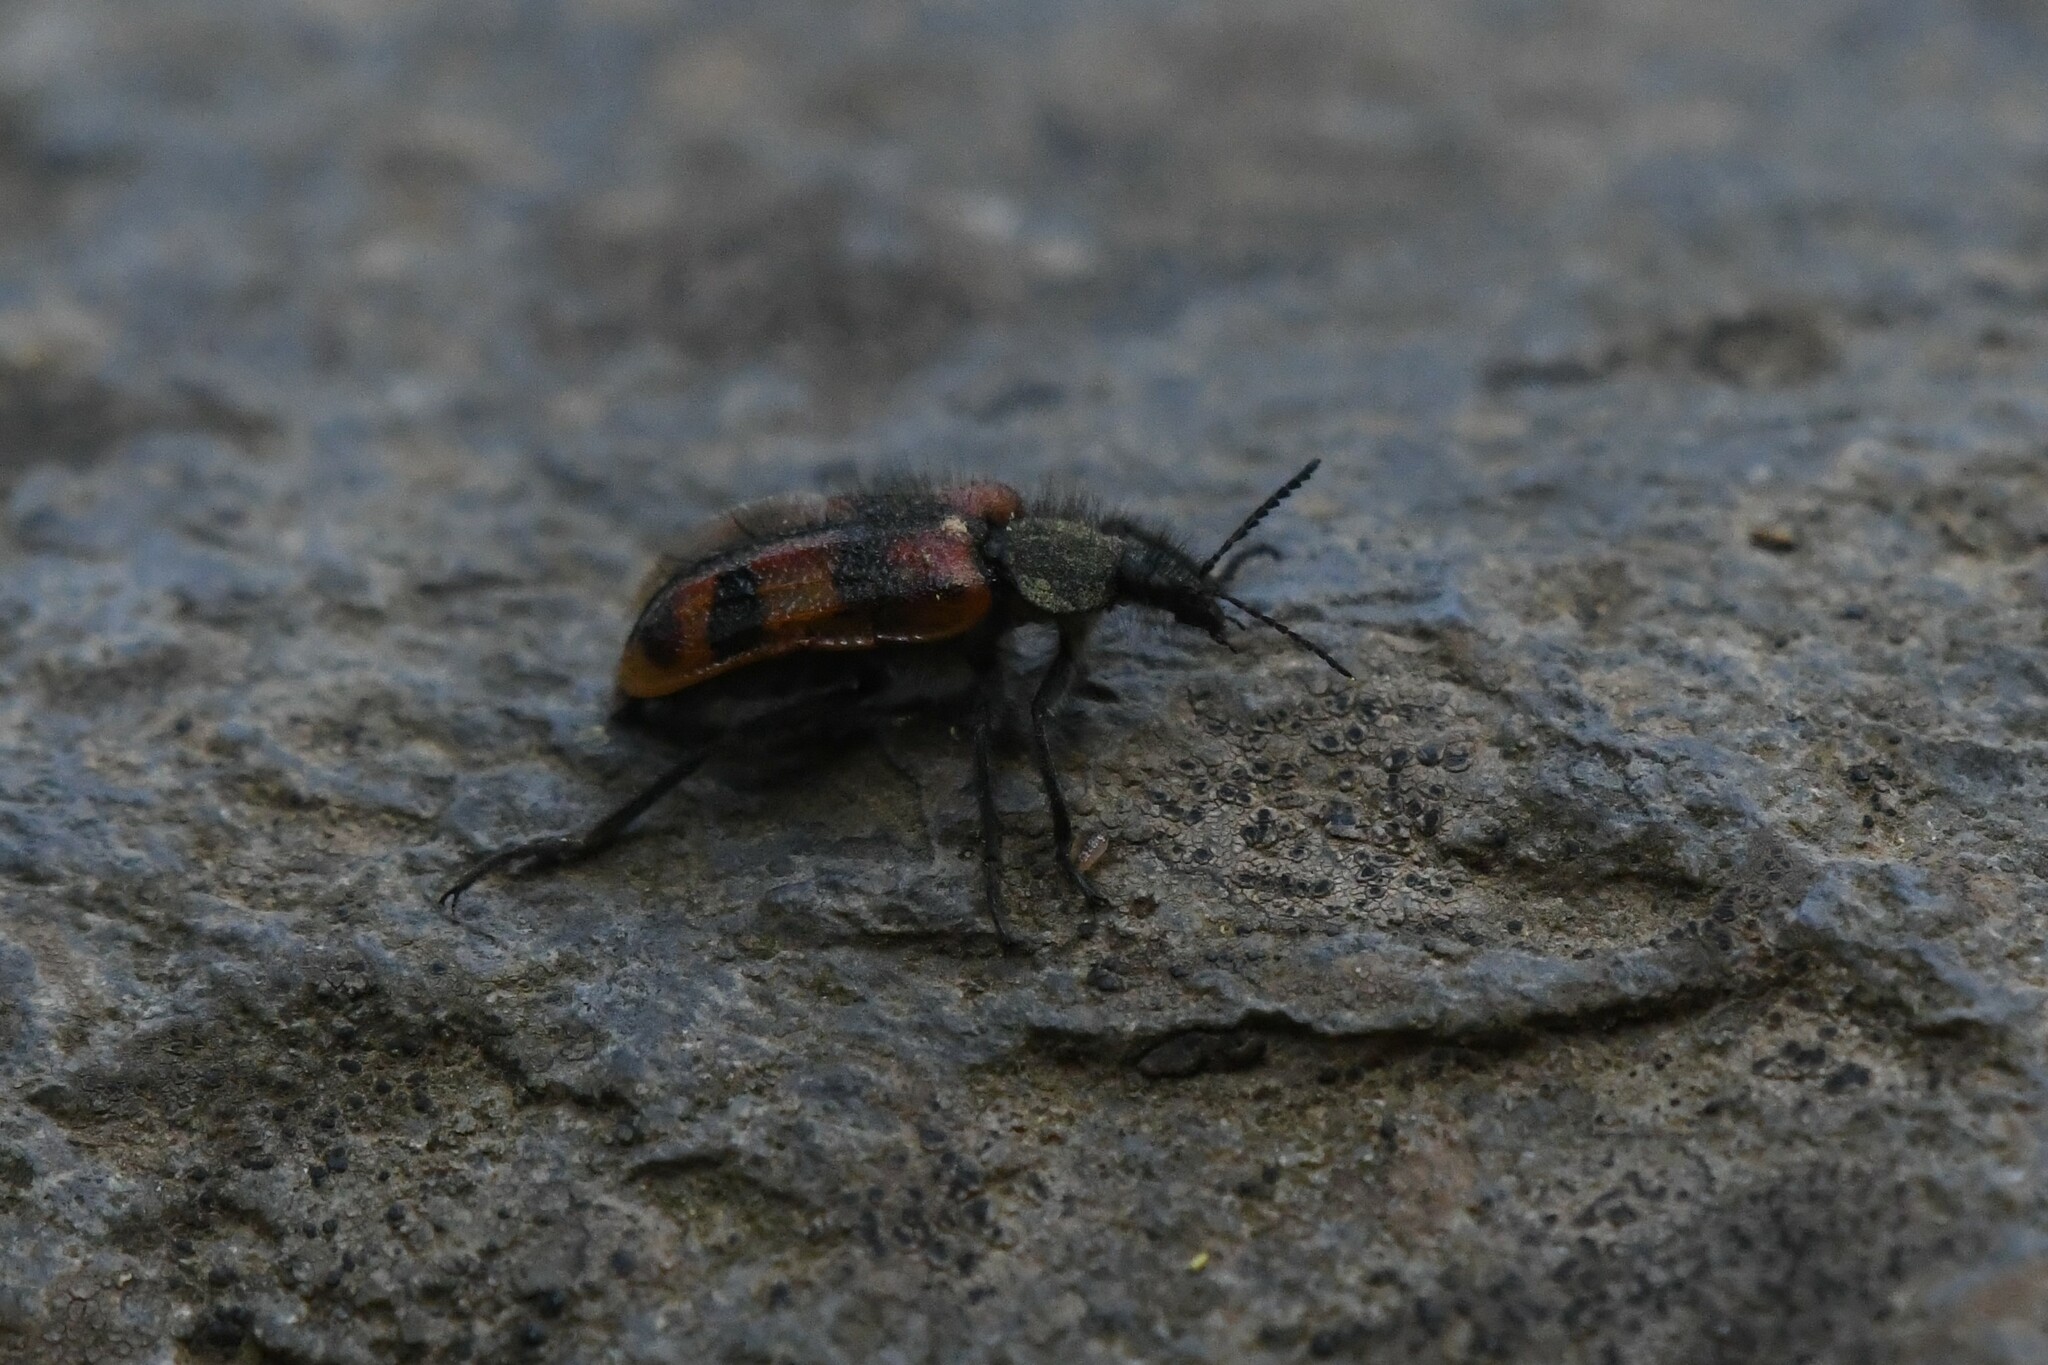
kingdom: Animalia
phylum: Arthropoda
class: Insecta
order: Coleoptera
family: Melyridae
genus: Astylus
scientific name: Astylus
